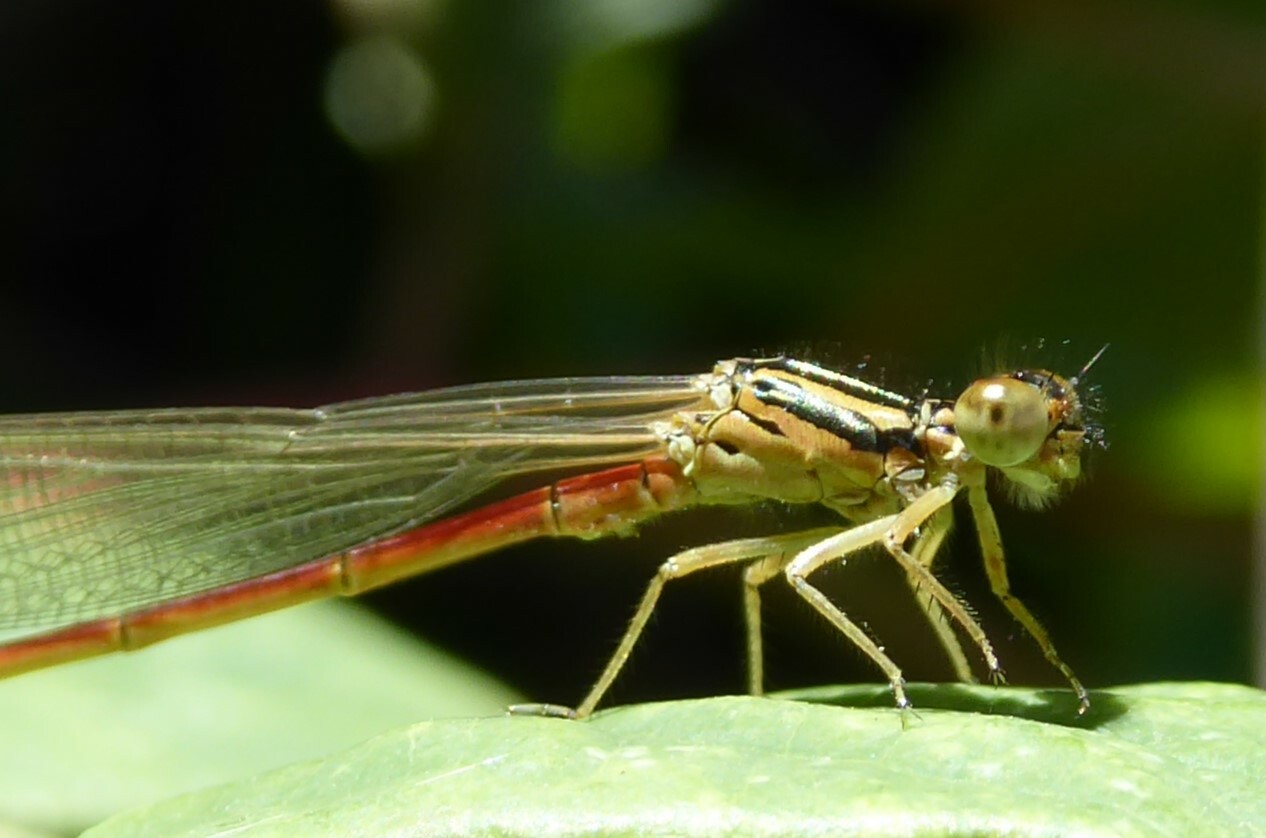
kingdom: Animalia
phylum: Arthropoda
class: Insecta
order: Odonata
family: Coenagrionidae
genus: Xanthocnemis
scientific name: Xanthocnemis zealandica
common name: Common redcoat damselfly
